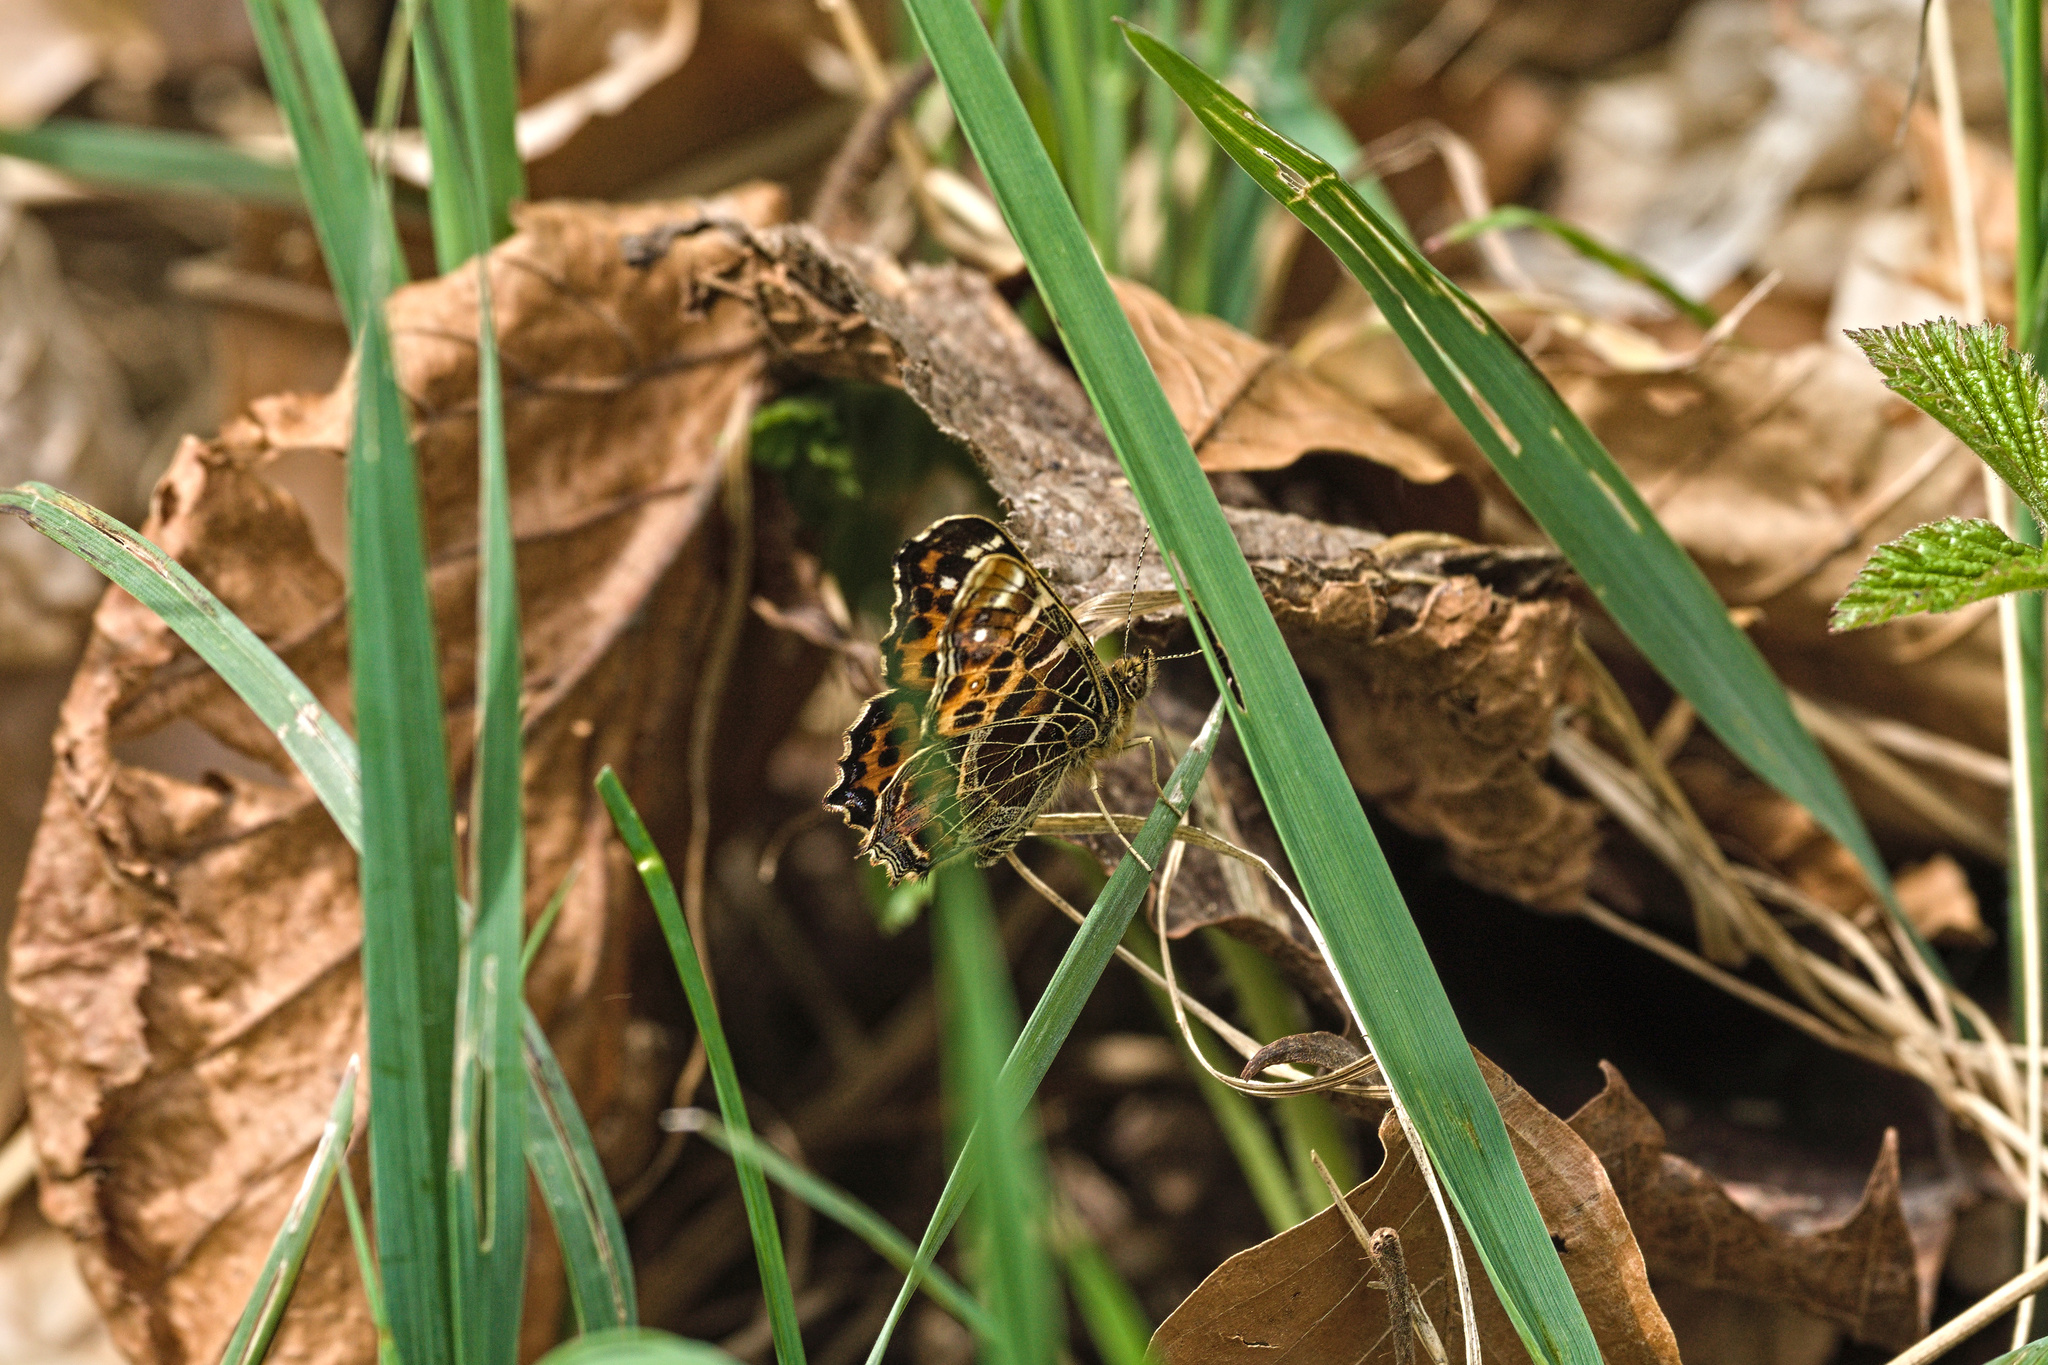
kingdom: Animalia
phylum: Arthropoda
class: Insecta
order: Lepidoptera
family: Nymphalidae
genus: Araschnia
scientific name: Araschnia levana
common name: Map butterfly
